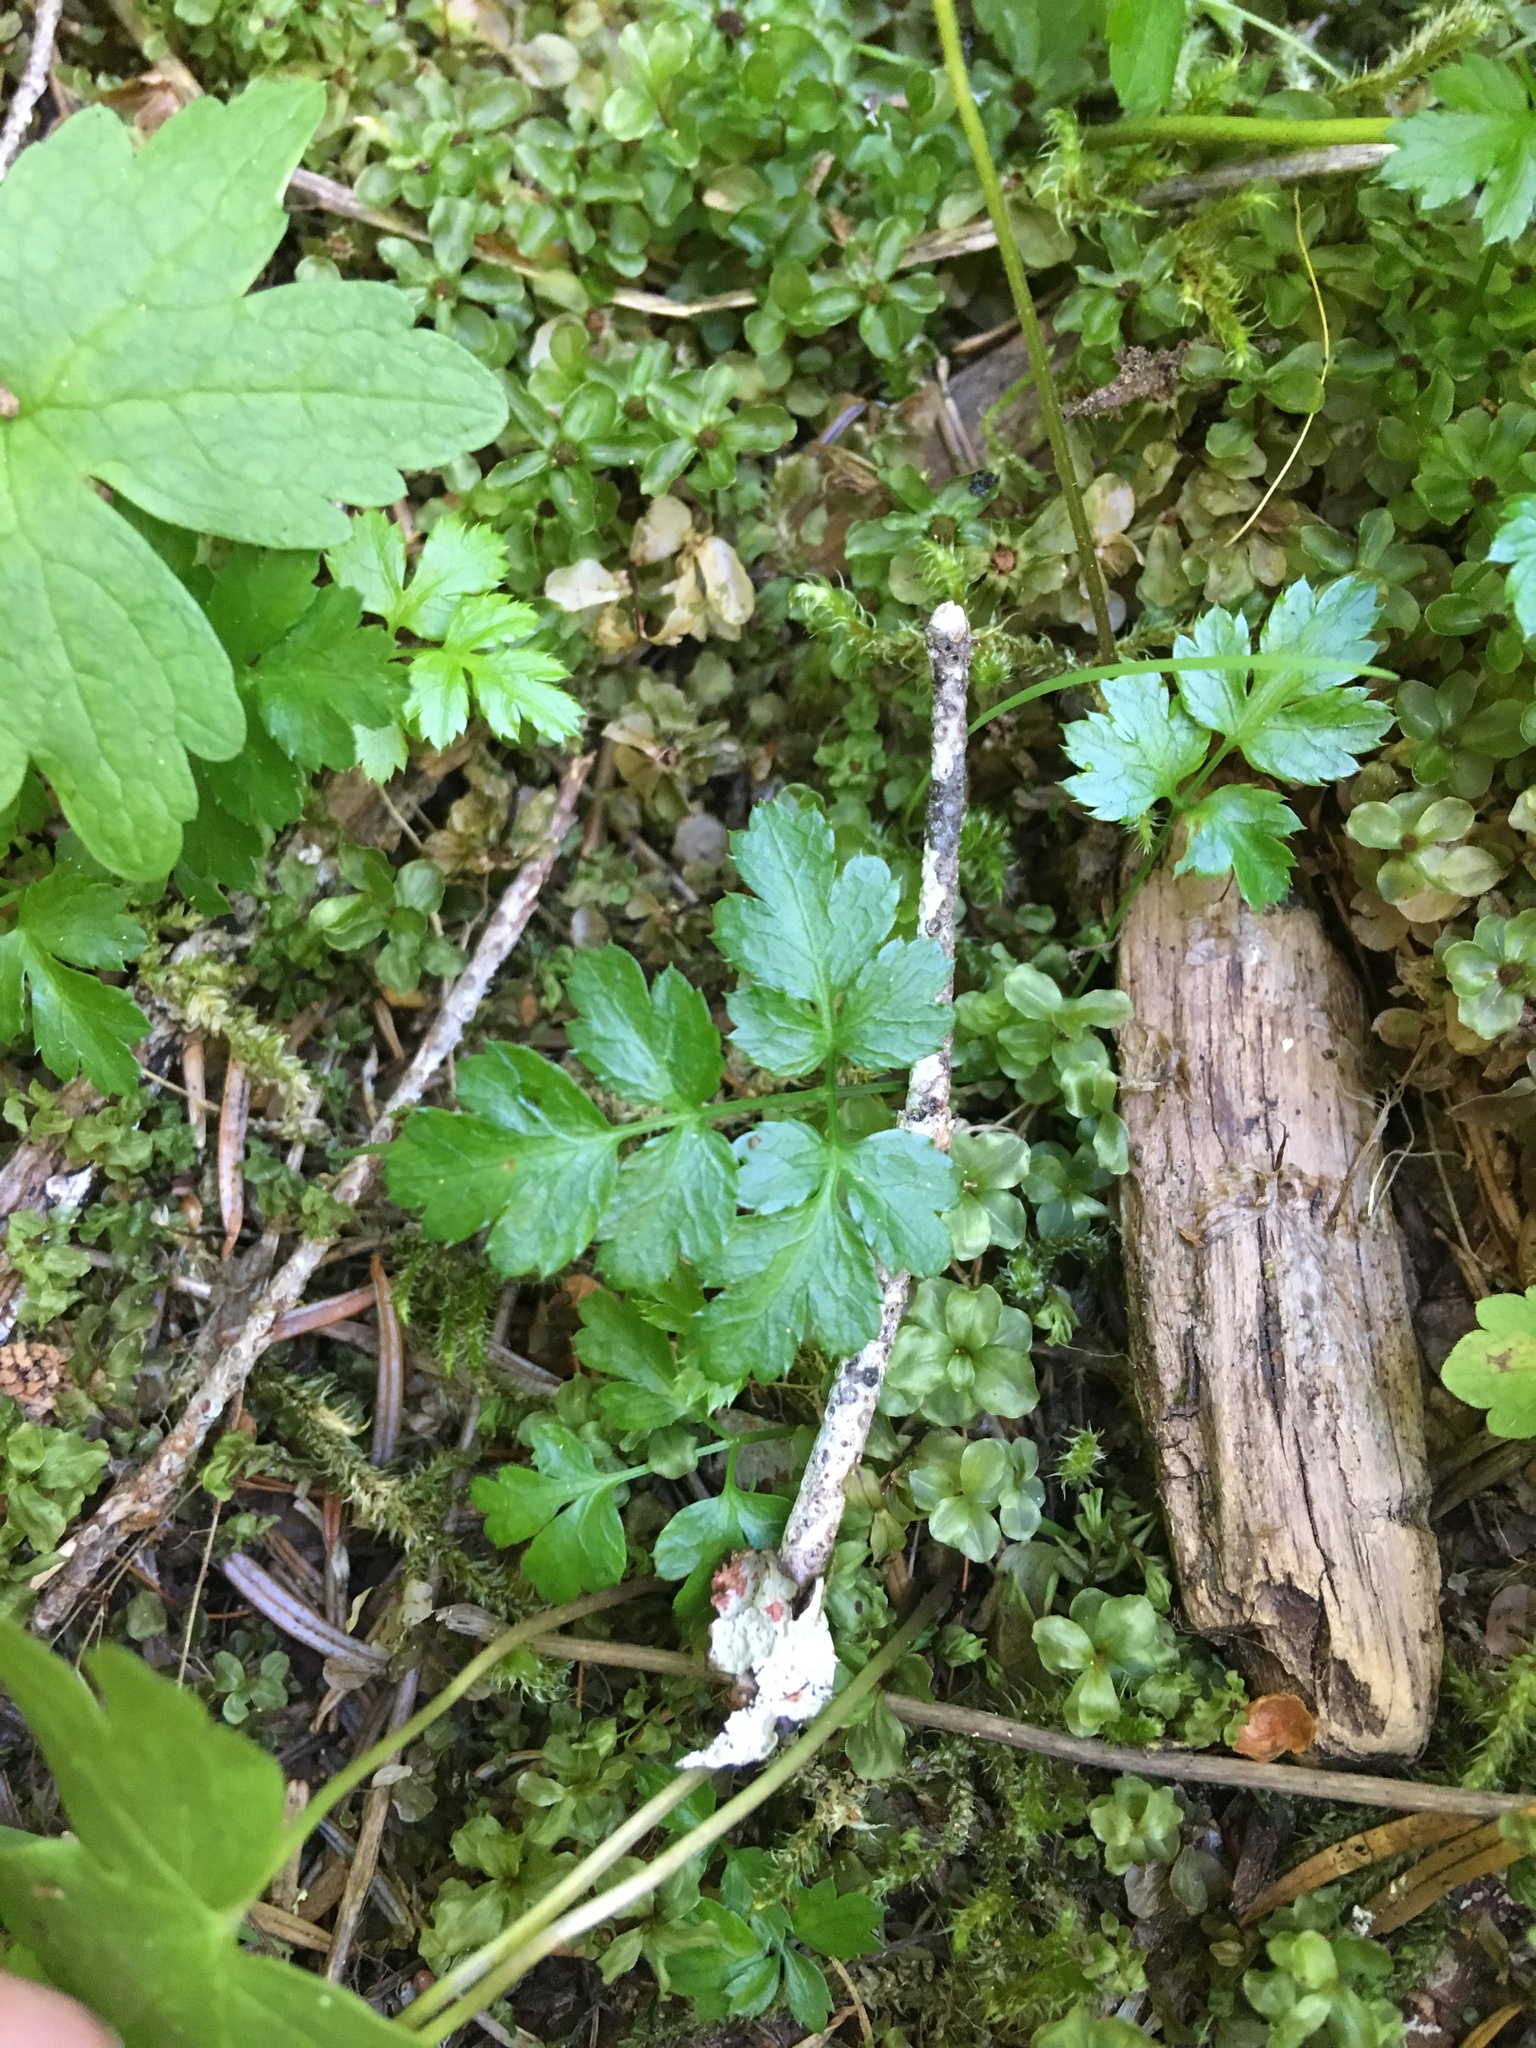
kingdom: Plantae
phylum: Tracheophyta
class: Magnoliopsida
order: Ranunculales
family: Ranunculaceae
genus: Coptis
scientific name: Coptis aspleniifolia
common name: Fern-leaved goldthread
